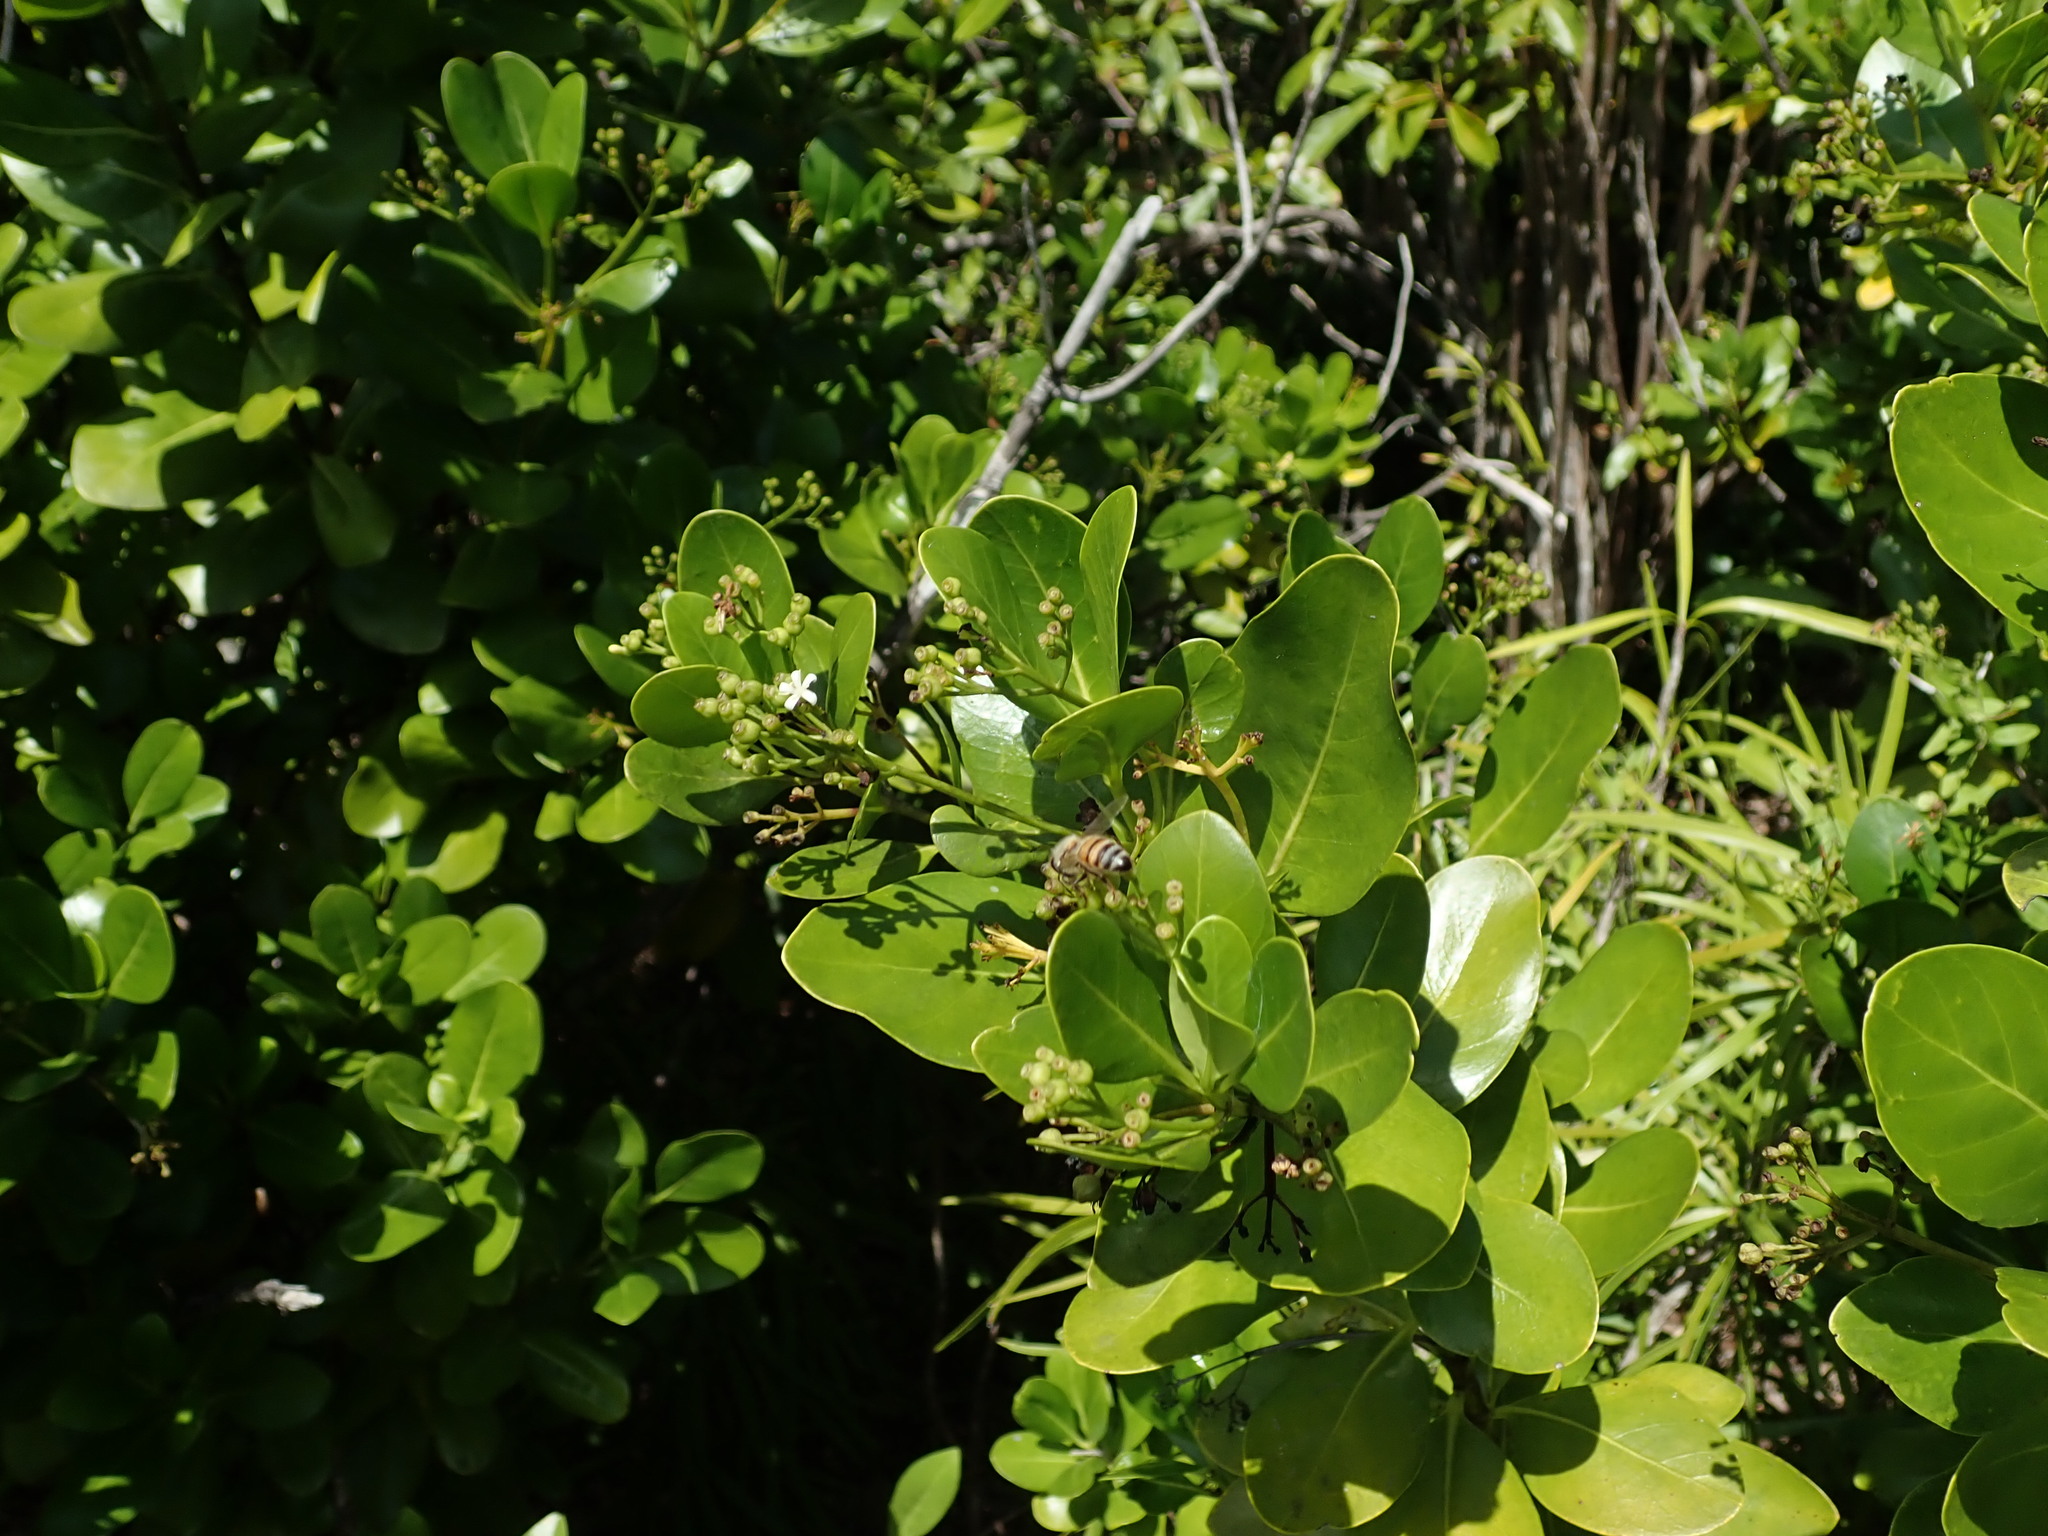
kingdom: Animalia
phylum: Arthropoda
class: Insecta
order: Hymenoptera
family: Apidae
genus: Apis
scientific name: Apis mellifera
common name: Honey bee
